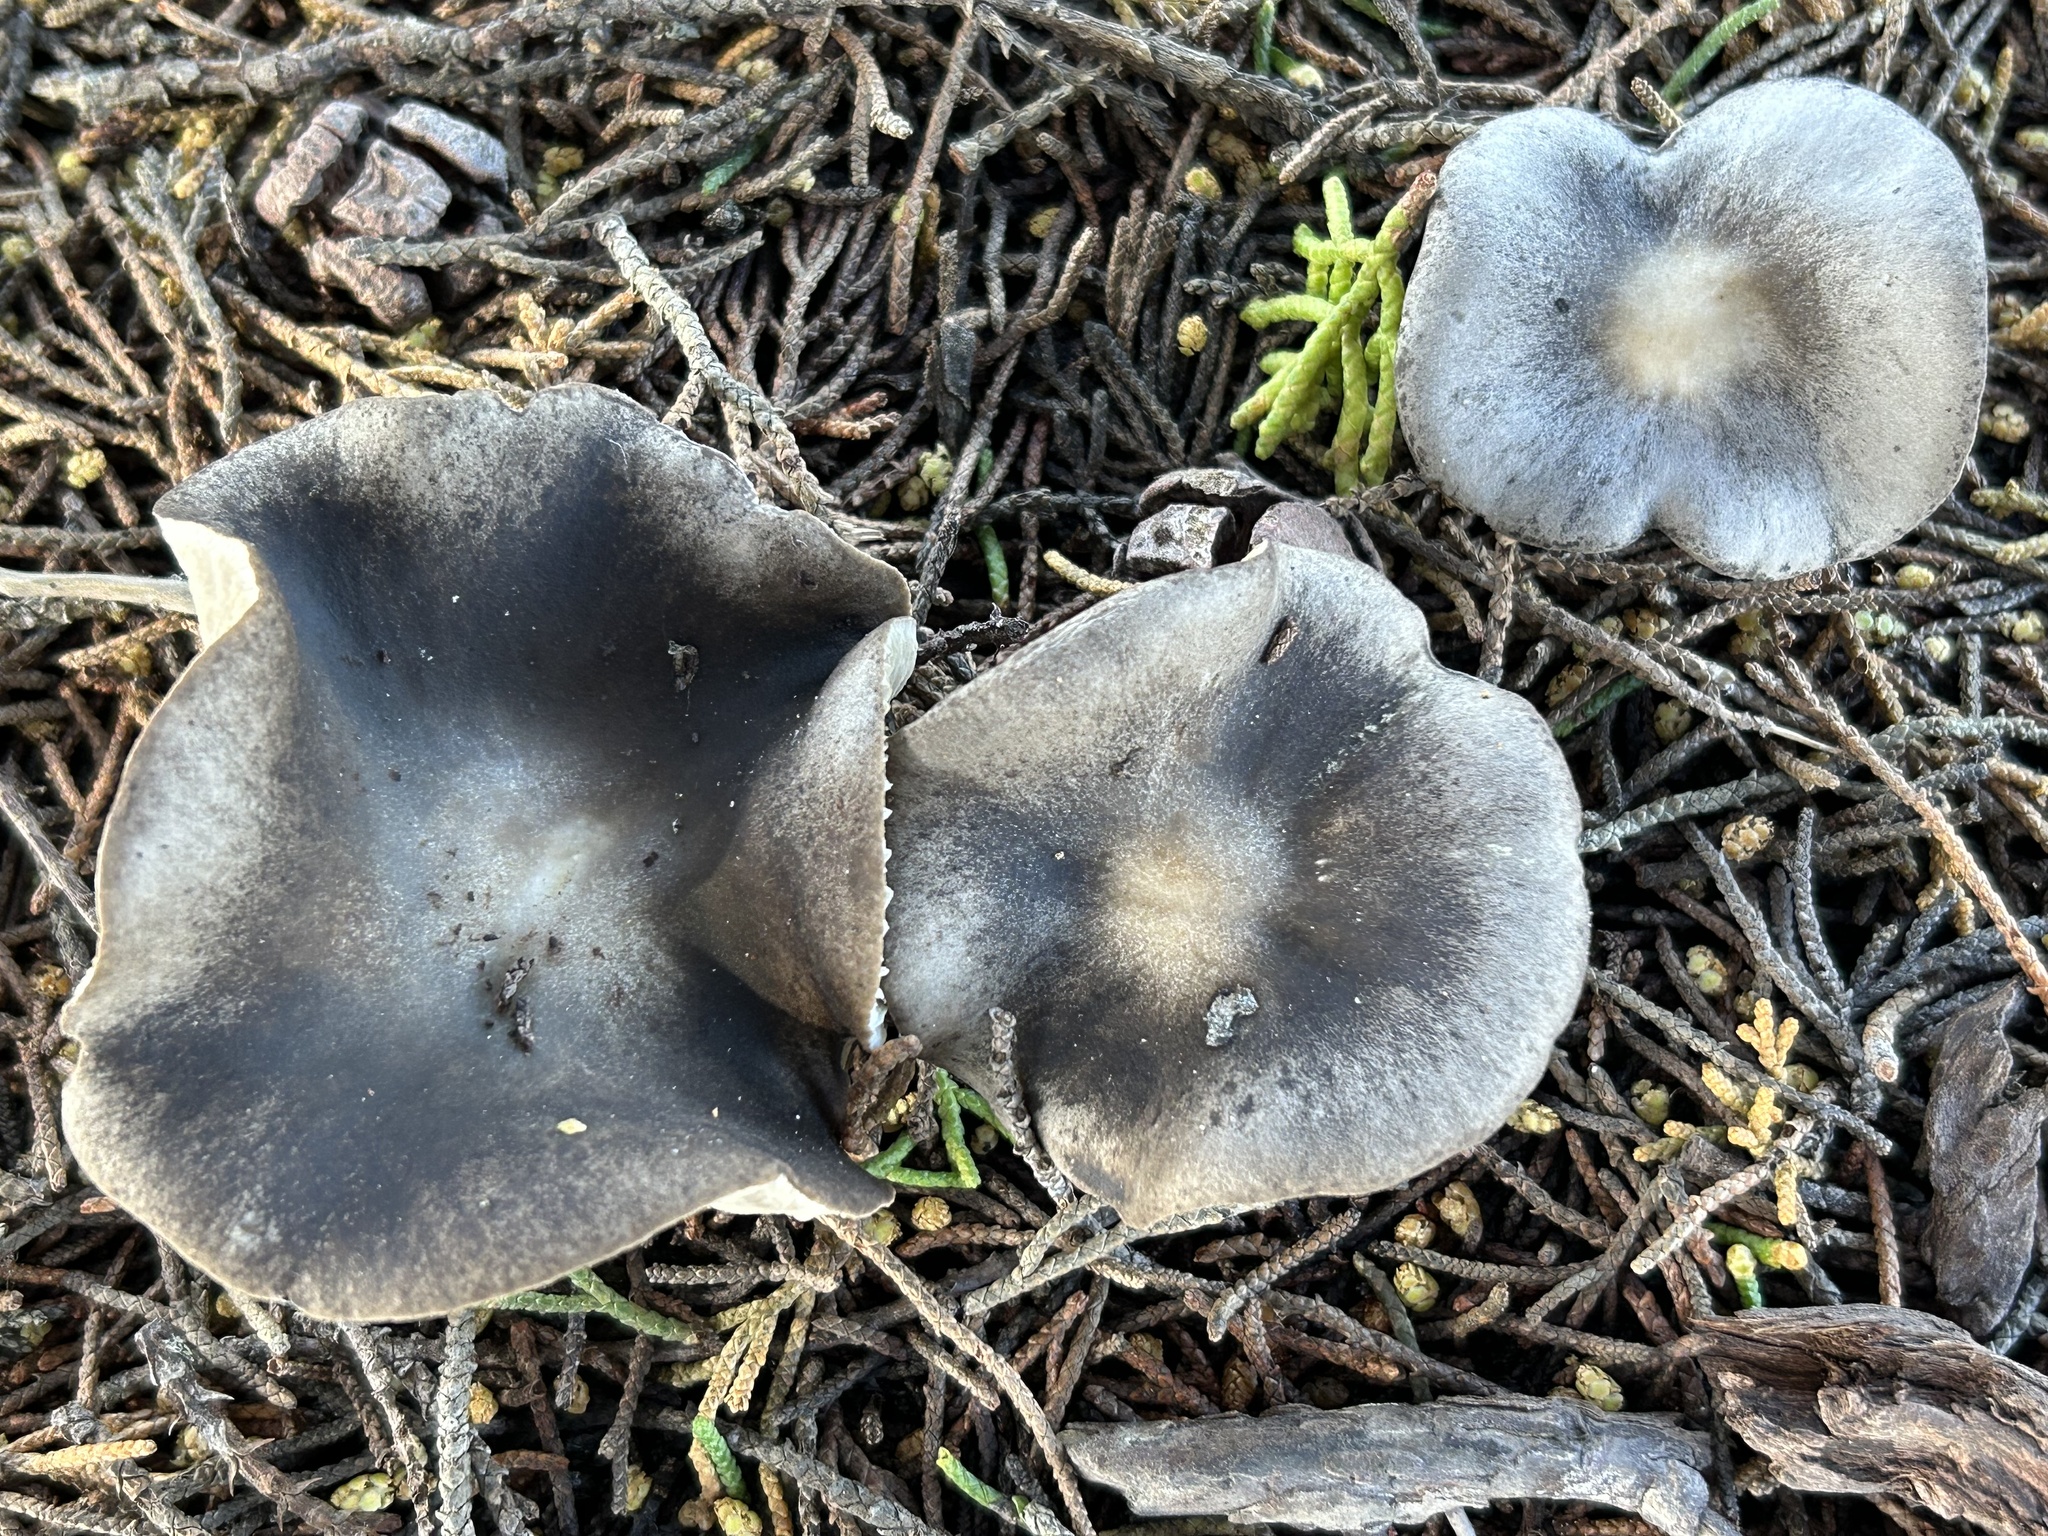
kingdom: Fungi
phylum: Basidiomycota
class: Agaricomycetes
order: Agaricales
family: Tricholomataceae
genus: Melanoleuca
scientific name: Melanoleuca melaleuca
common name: Bald cavalier
